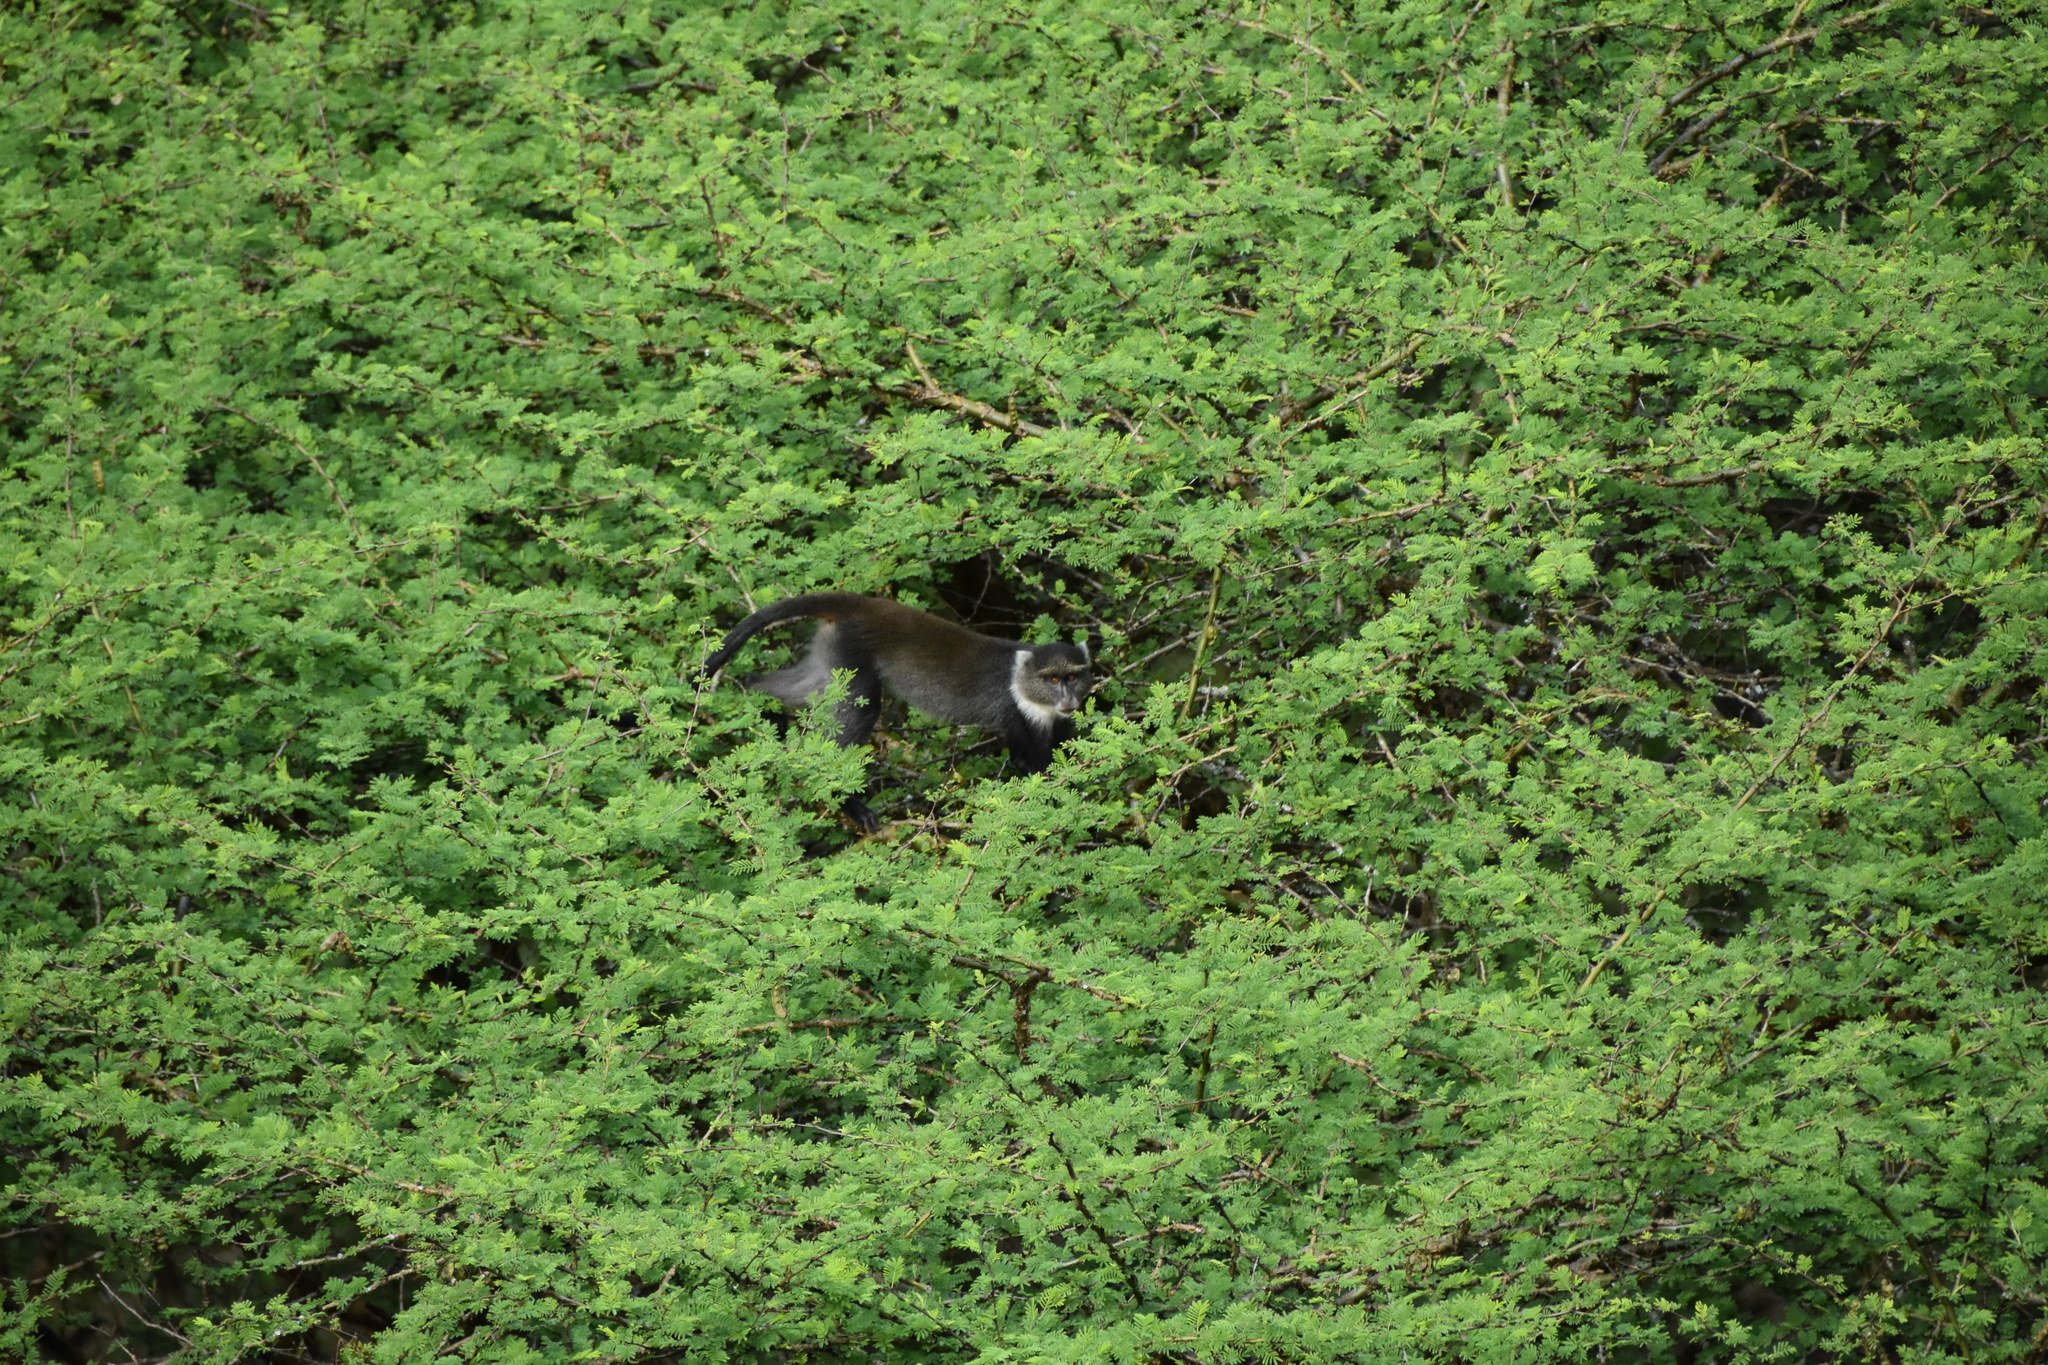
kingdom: Animalia
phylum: Chordata
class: Mammalia
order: Primates
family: Cercopithecidae
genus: Cercopithecus
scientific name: Cercopithecus mitis
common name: Blue monkey
